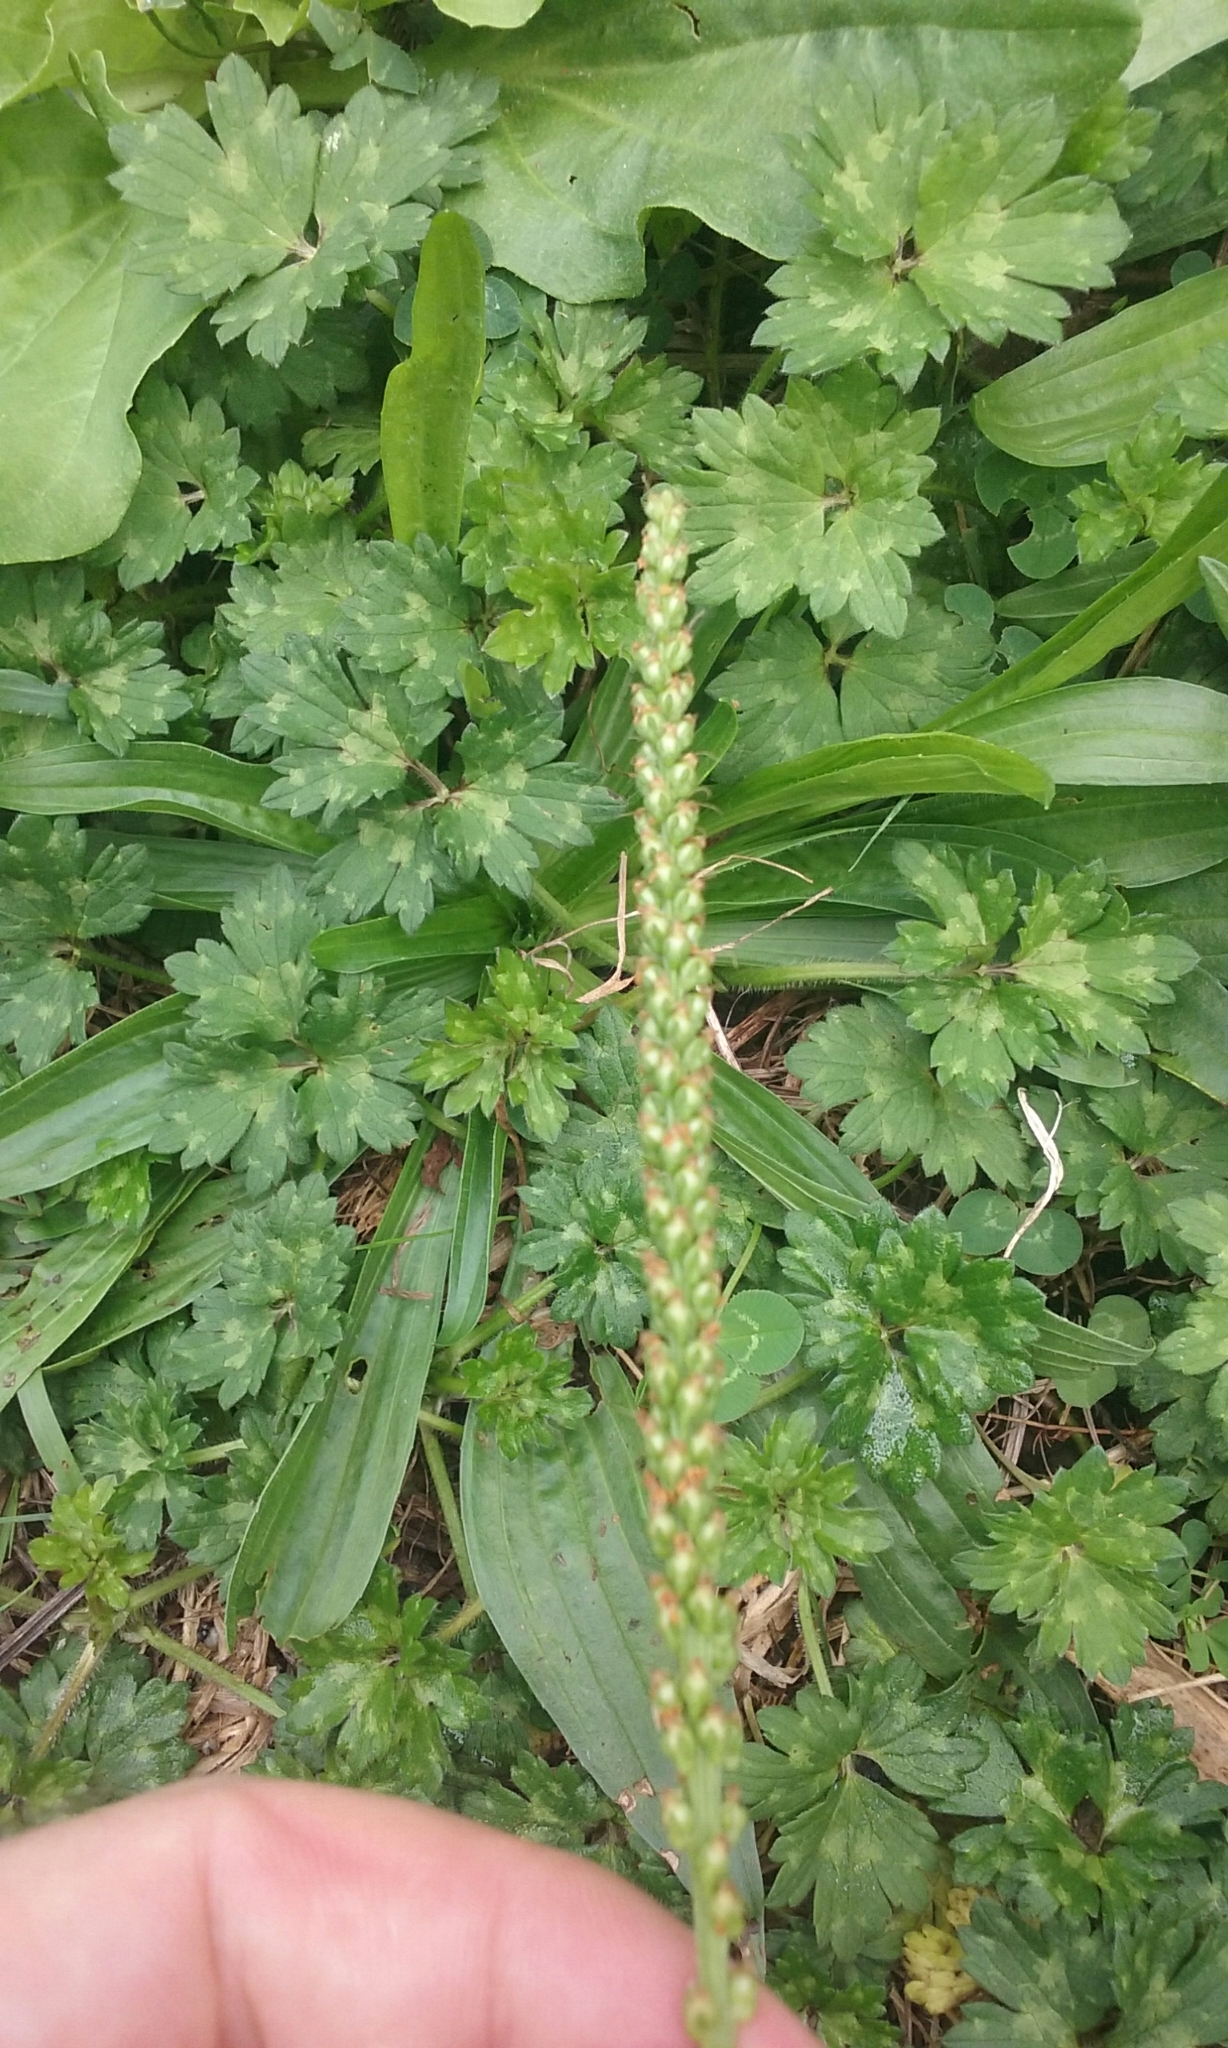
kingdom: Plantae
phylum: Tracheophyta
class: Magnoliopsida
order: Lamiales
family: Plantaginaceae
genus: Plantago
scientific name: Plantago lanceolata
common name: Ribwort plantain
